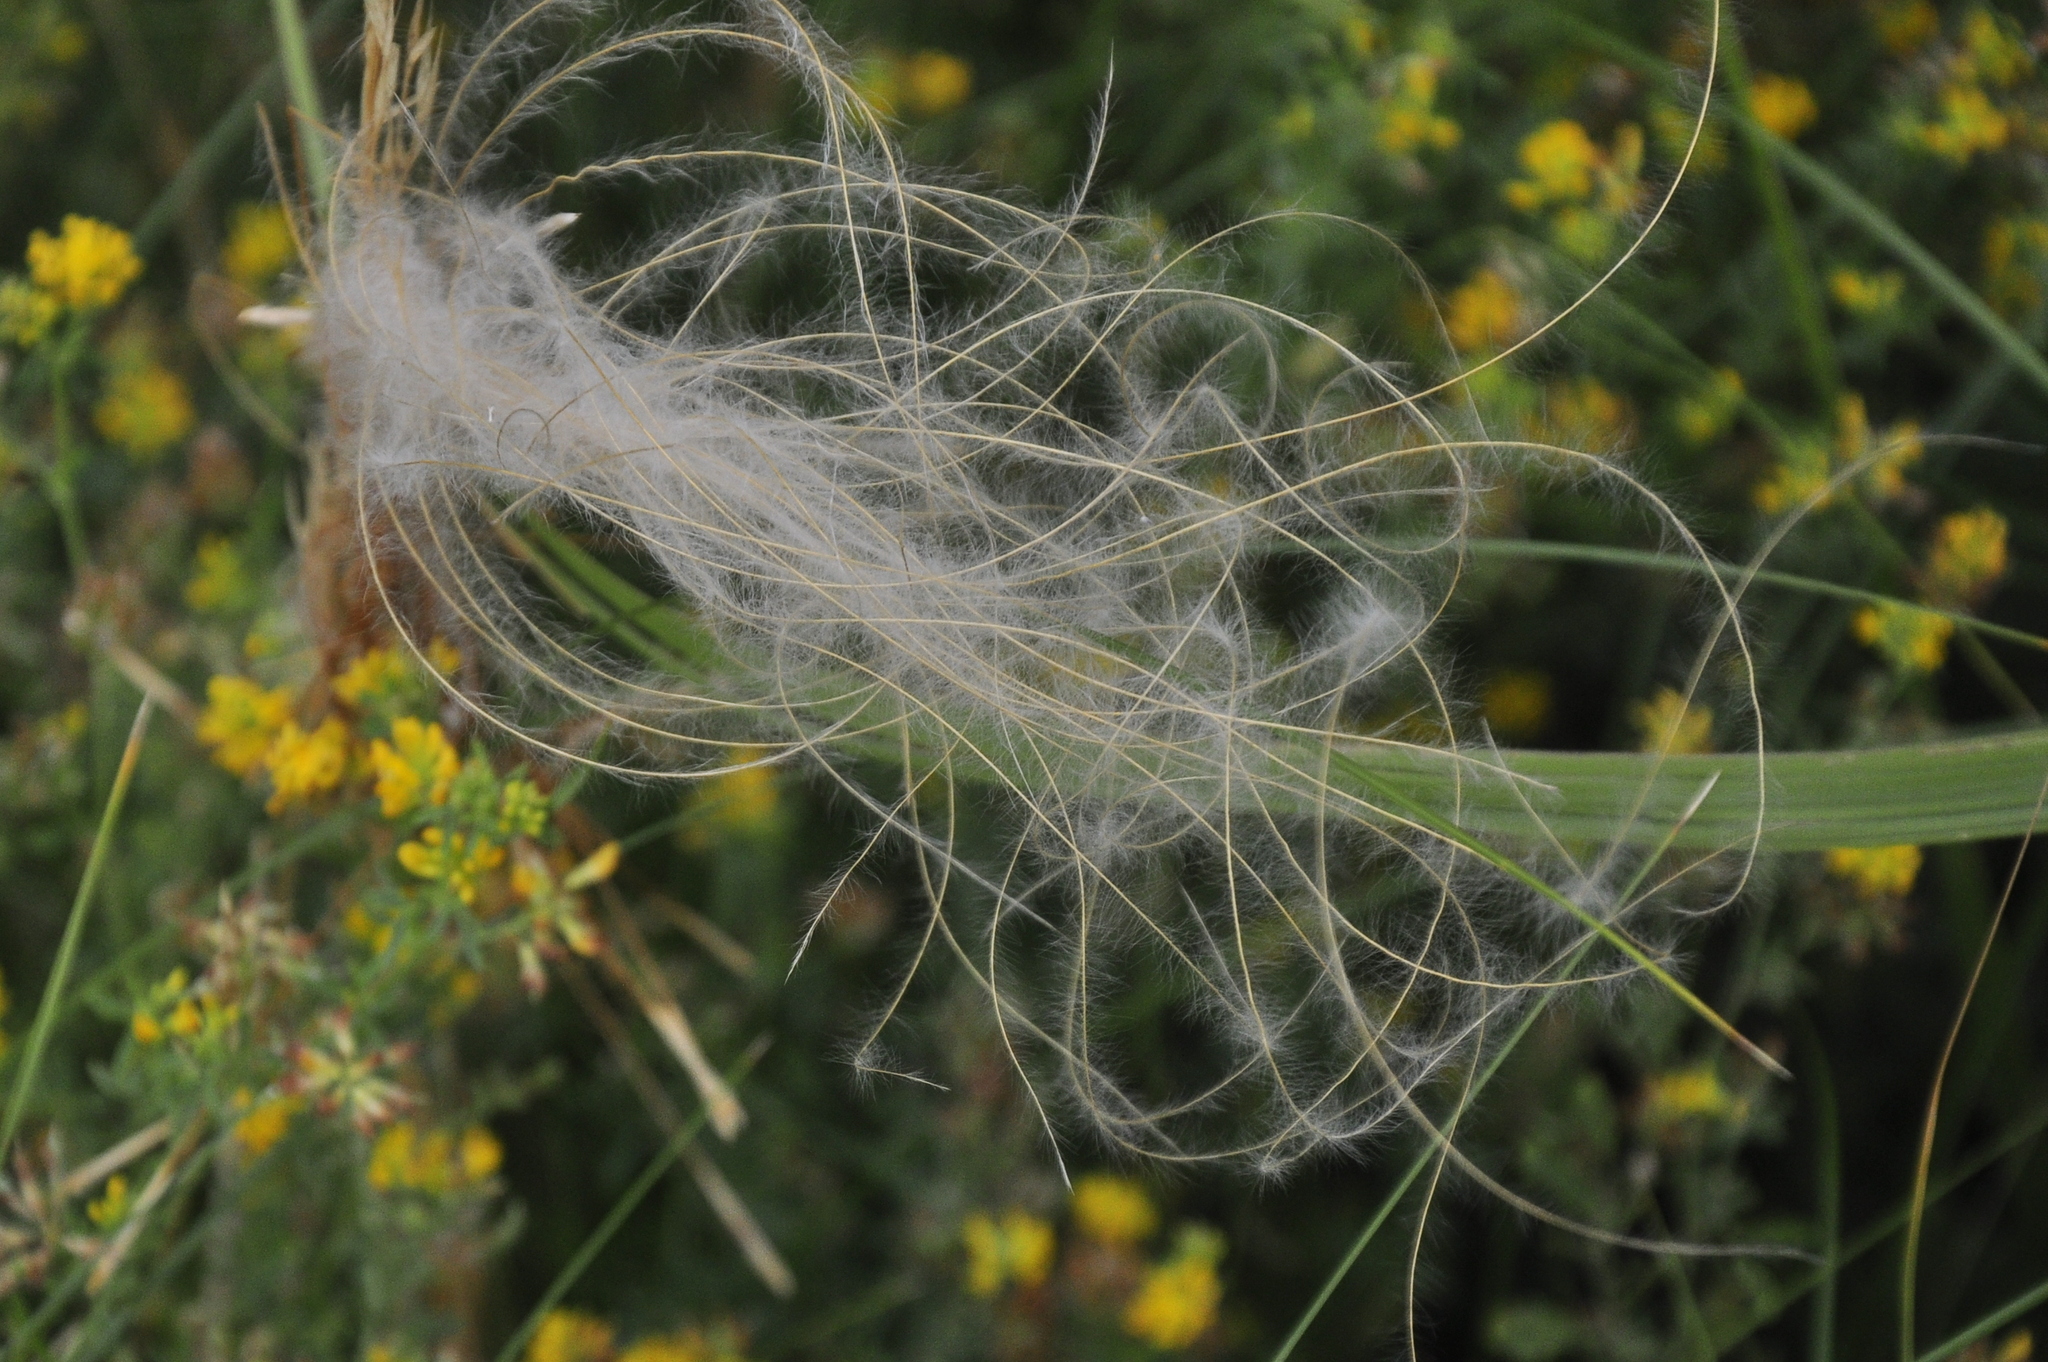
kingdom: Plantae
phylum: Tracheophyta
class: Liliopsida
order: Poales
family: Poaceae
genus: Stipa
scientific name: Stipa pennata
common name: European feather grass
